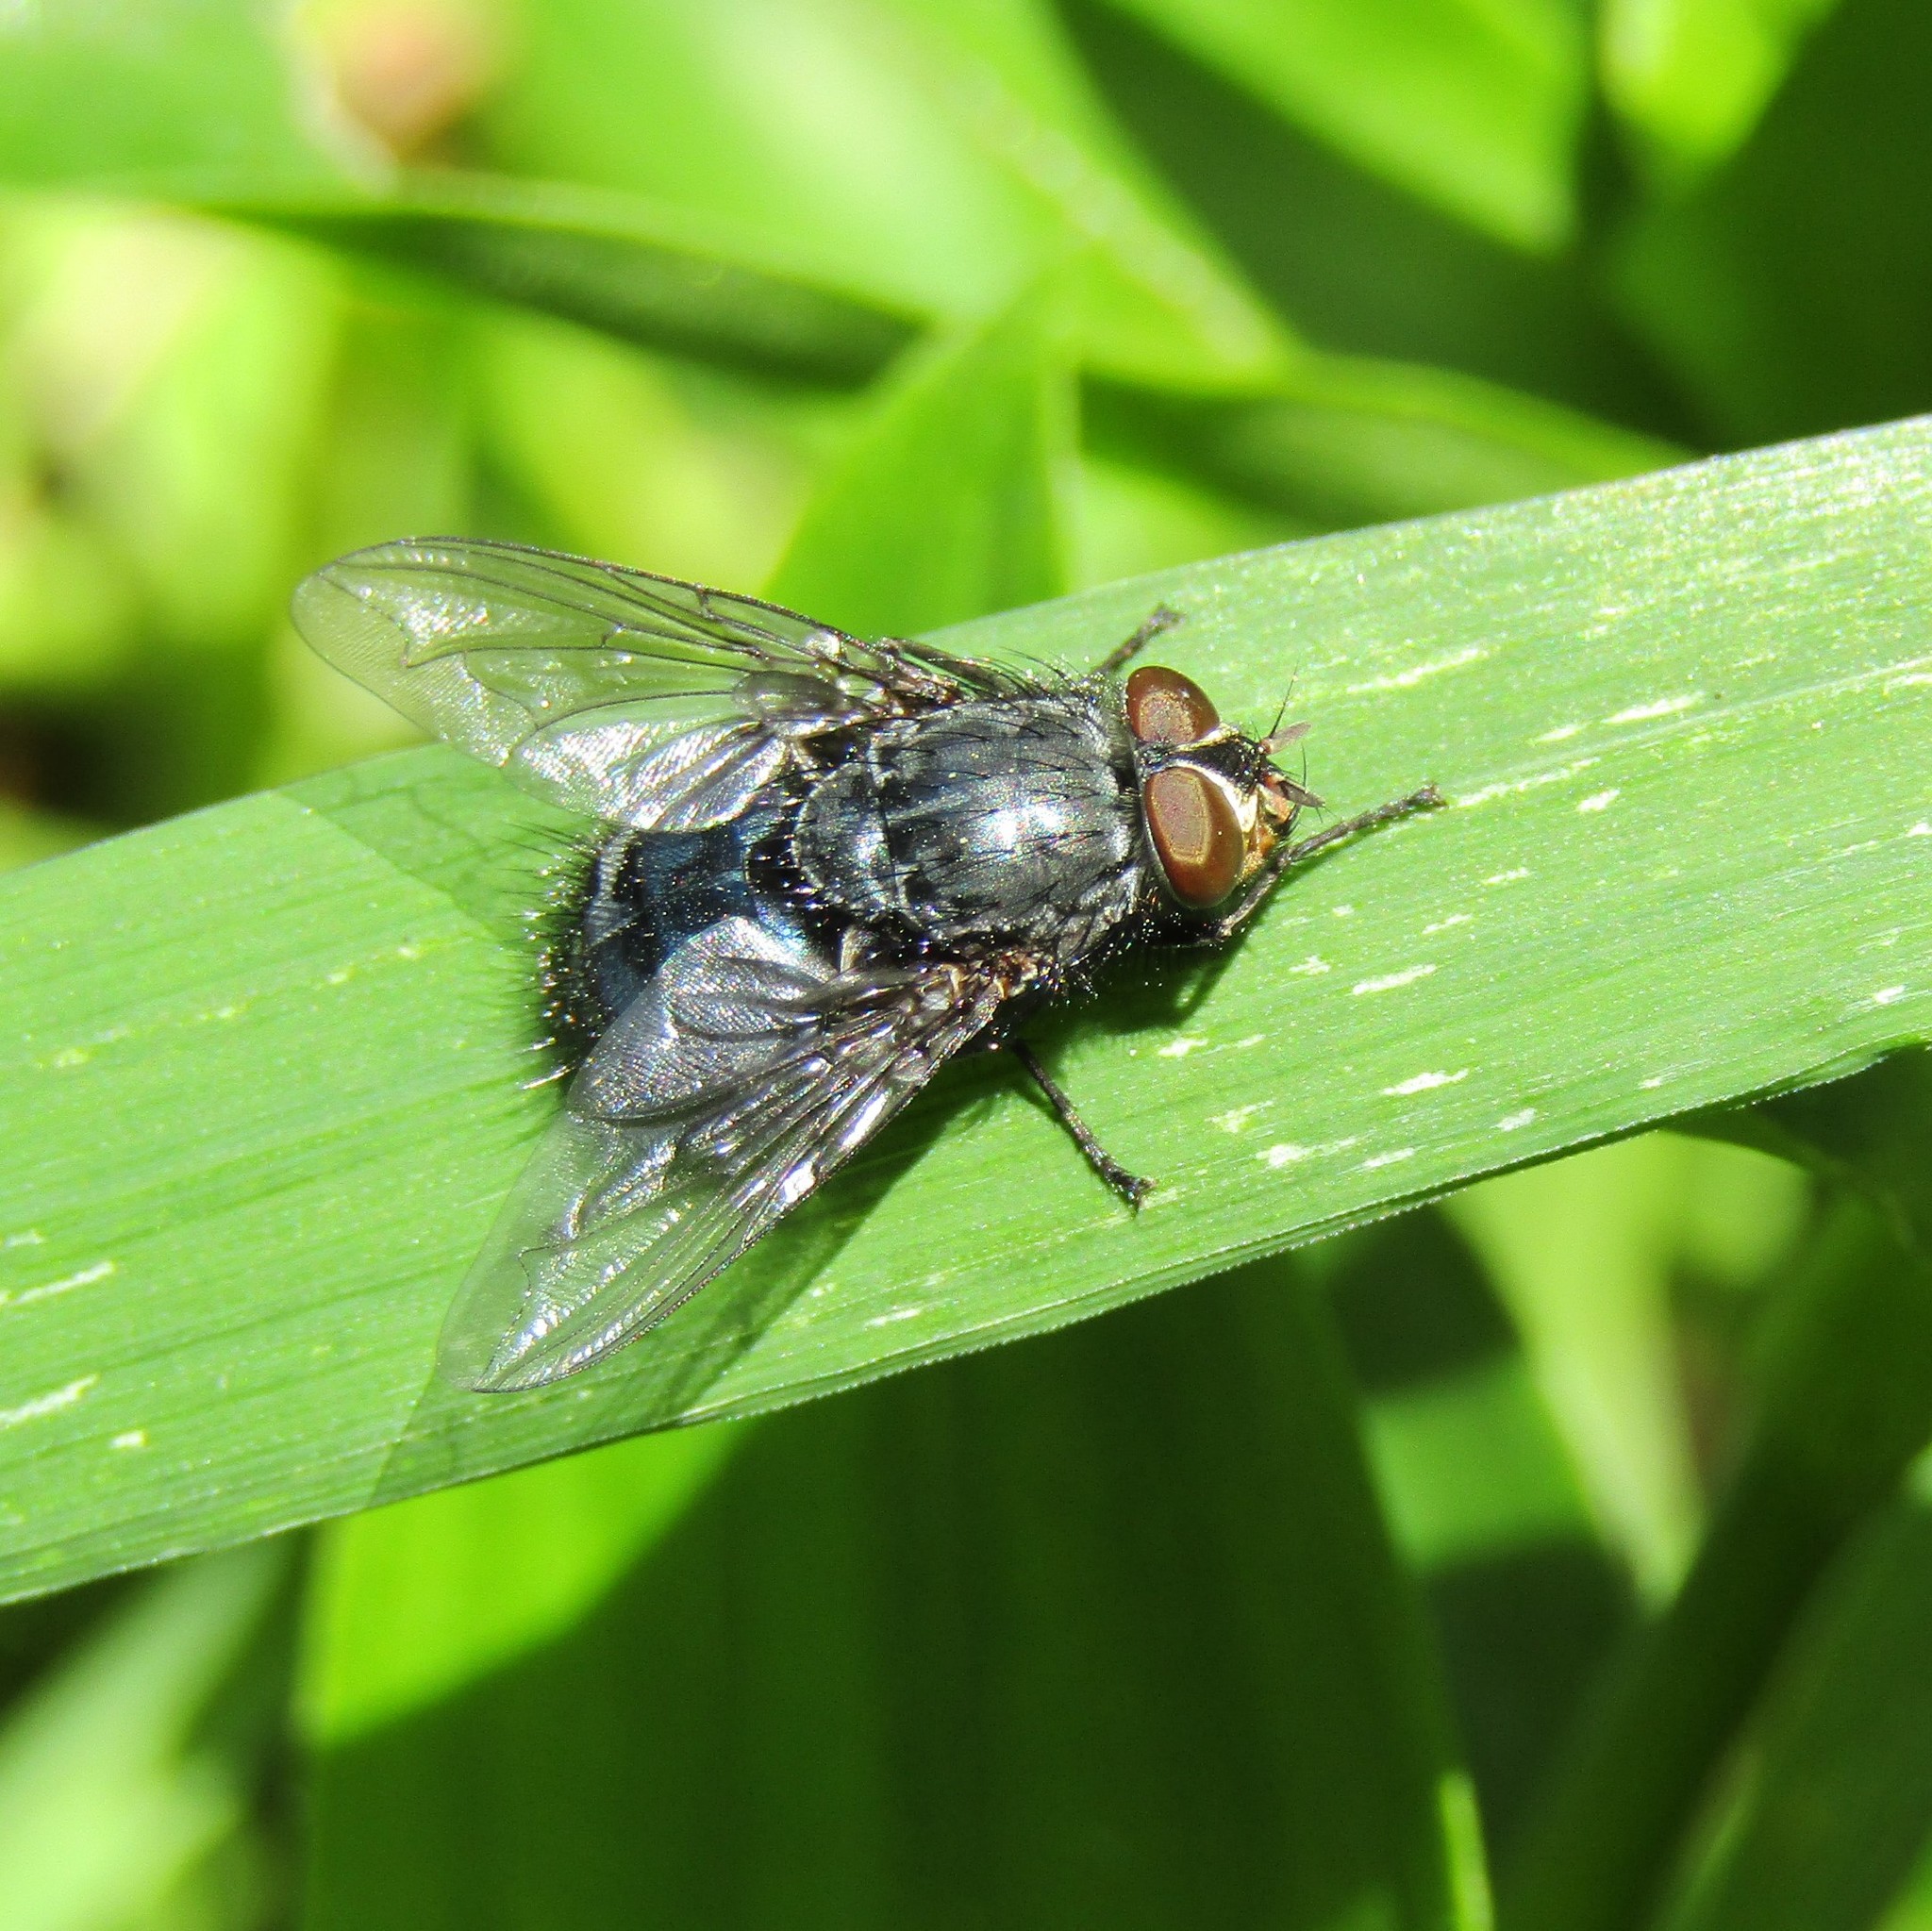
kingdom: Animalia
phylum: Arthropoda
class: Insecta
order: Diptera
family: Calliphoridae
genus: Calliphora
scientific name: Calliphora vicina
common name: Common blow flie
